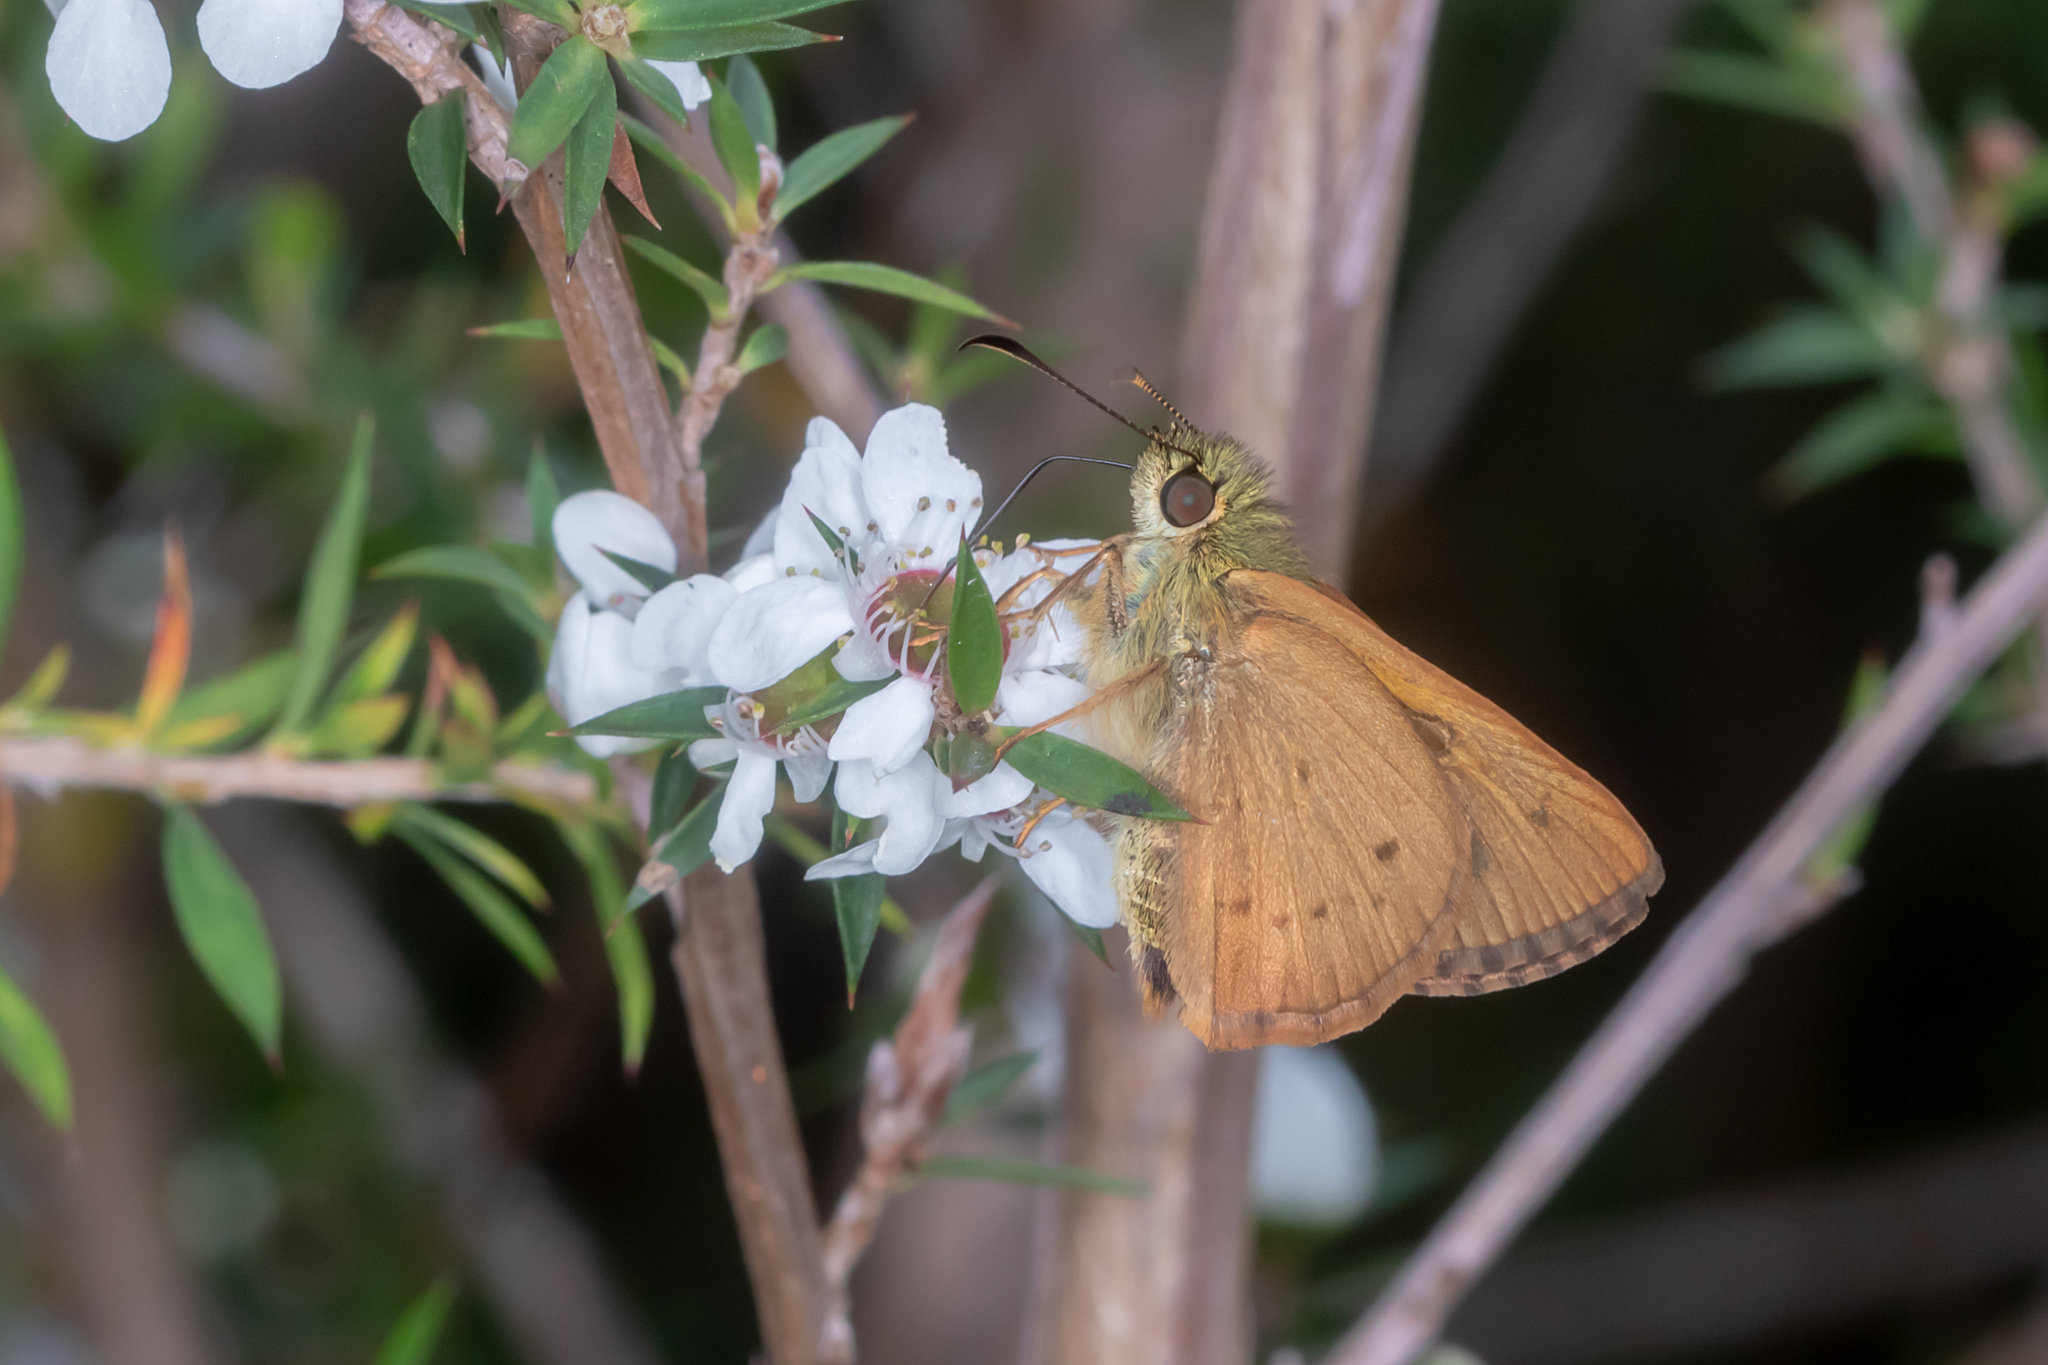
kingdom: Animalia
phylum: Arthropoda
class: Insecta
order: Lepidoptera
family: Hesperiidae
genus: Toxidia
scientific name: Toxidia
